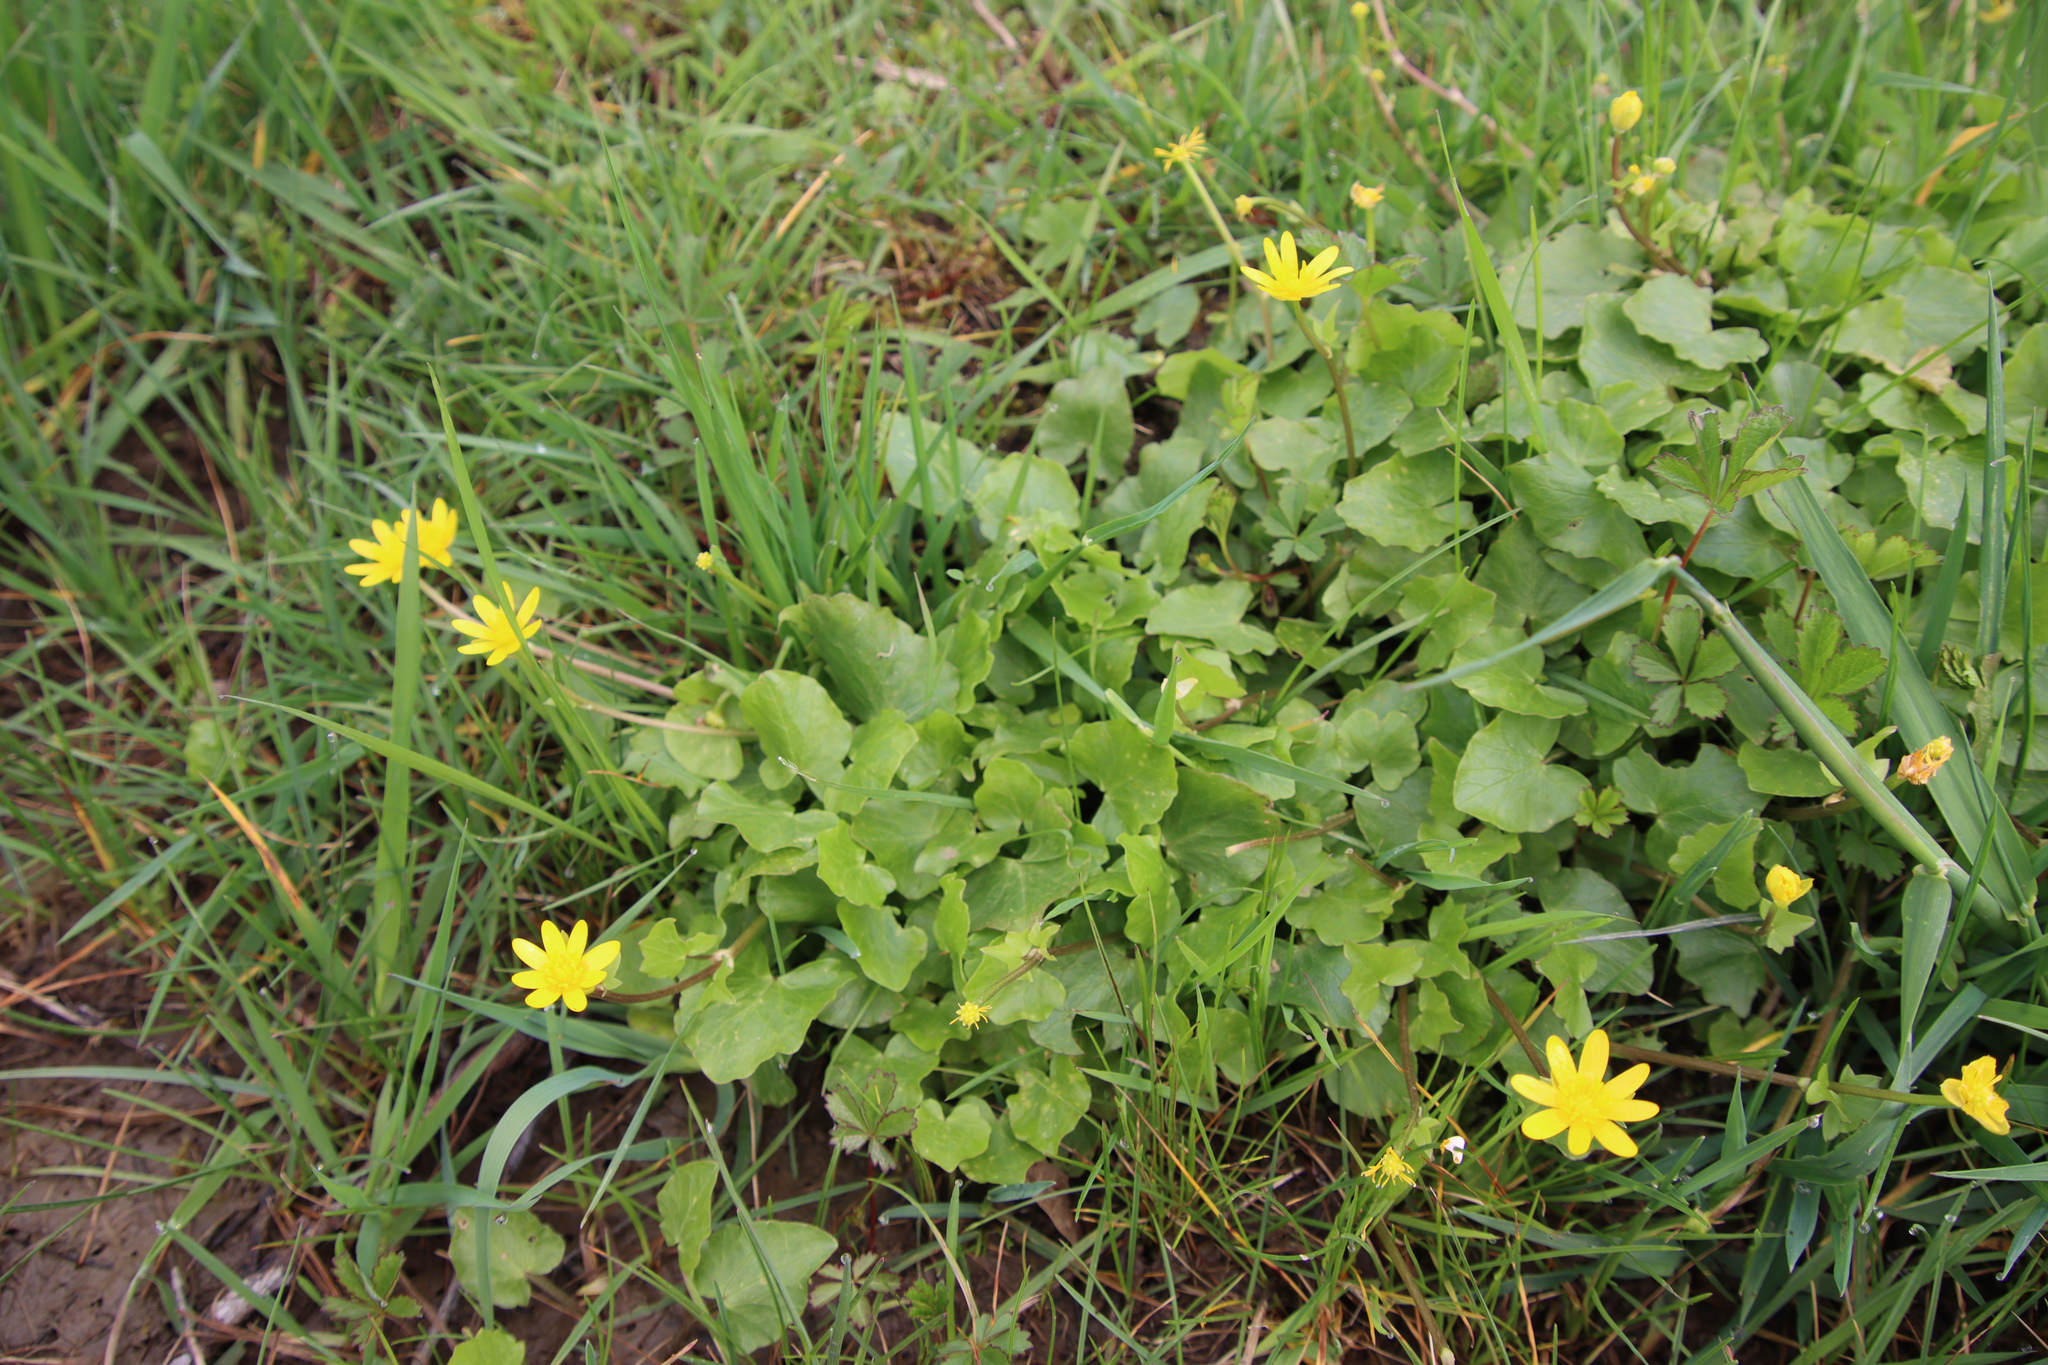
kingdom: Plantae
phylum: Tracheophyta
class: Magnoliopsida
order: Ranunculales
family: Ranunculaceae
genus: Ficaria
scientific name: Ficaria verna
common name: Lesser celandine
